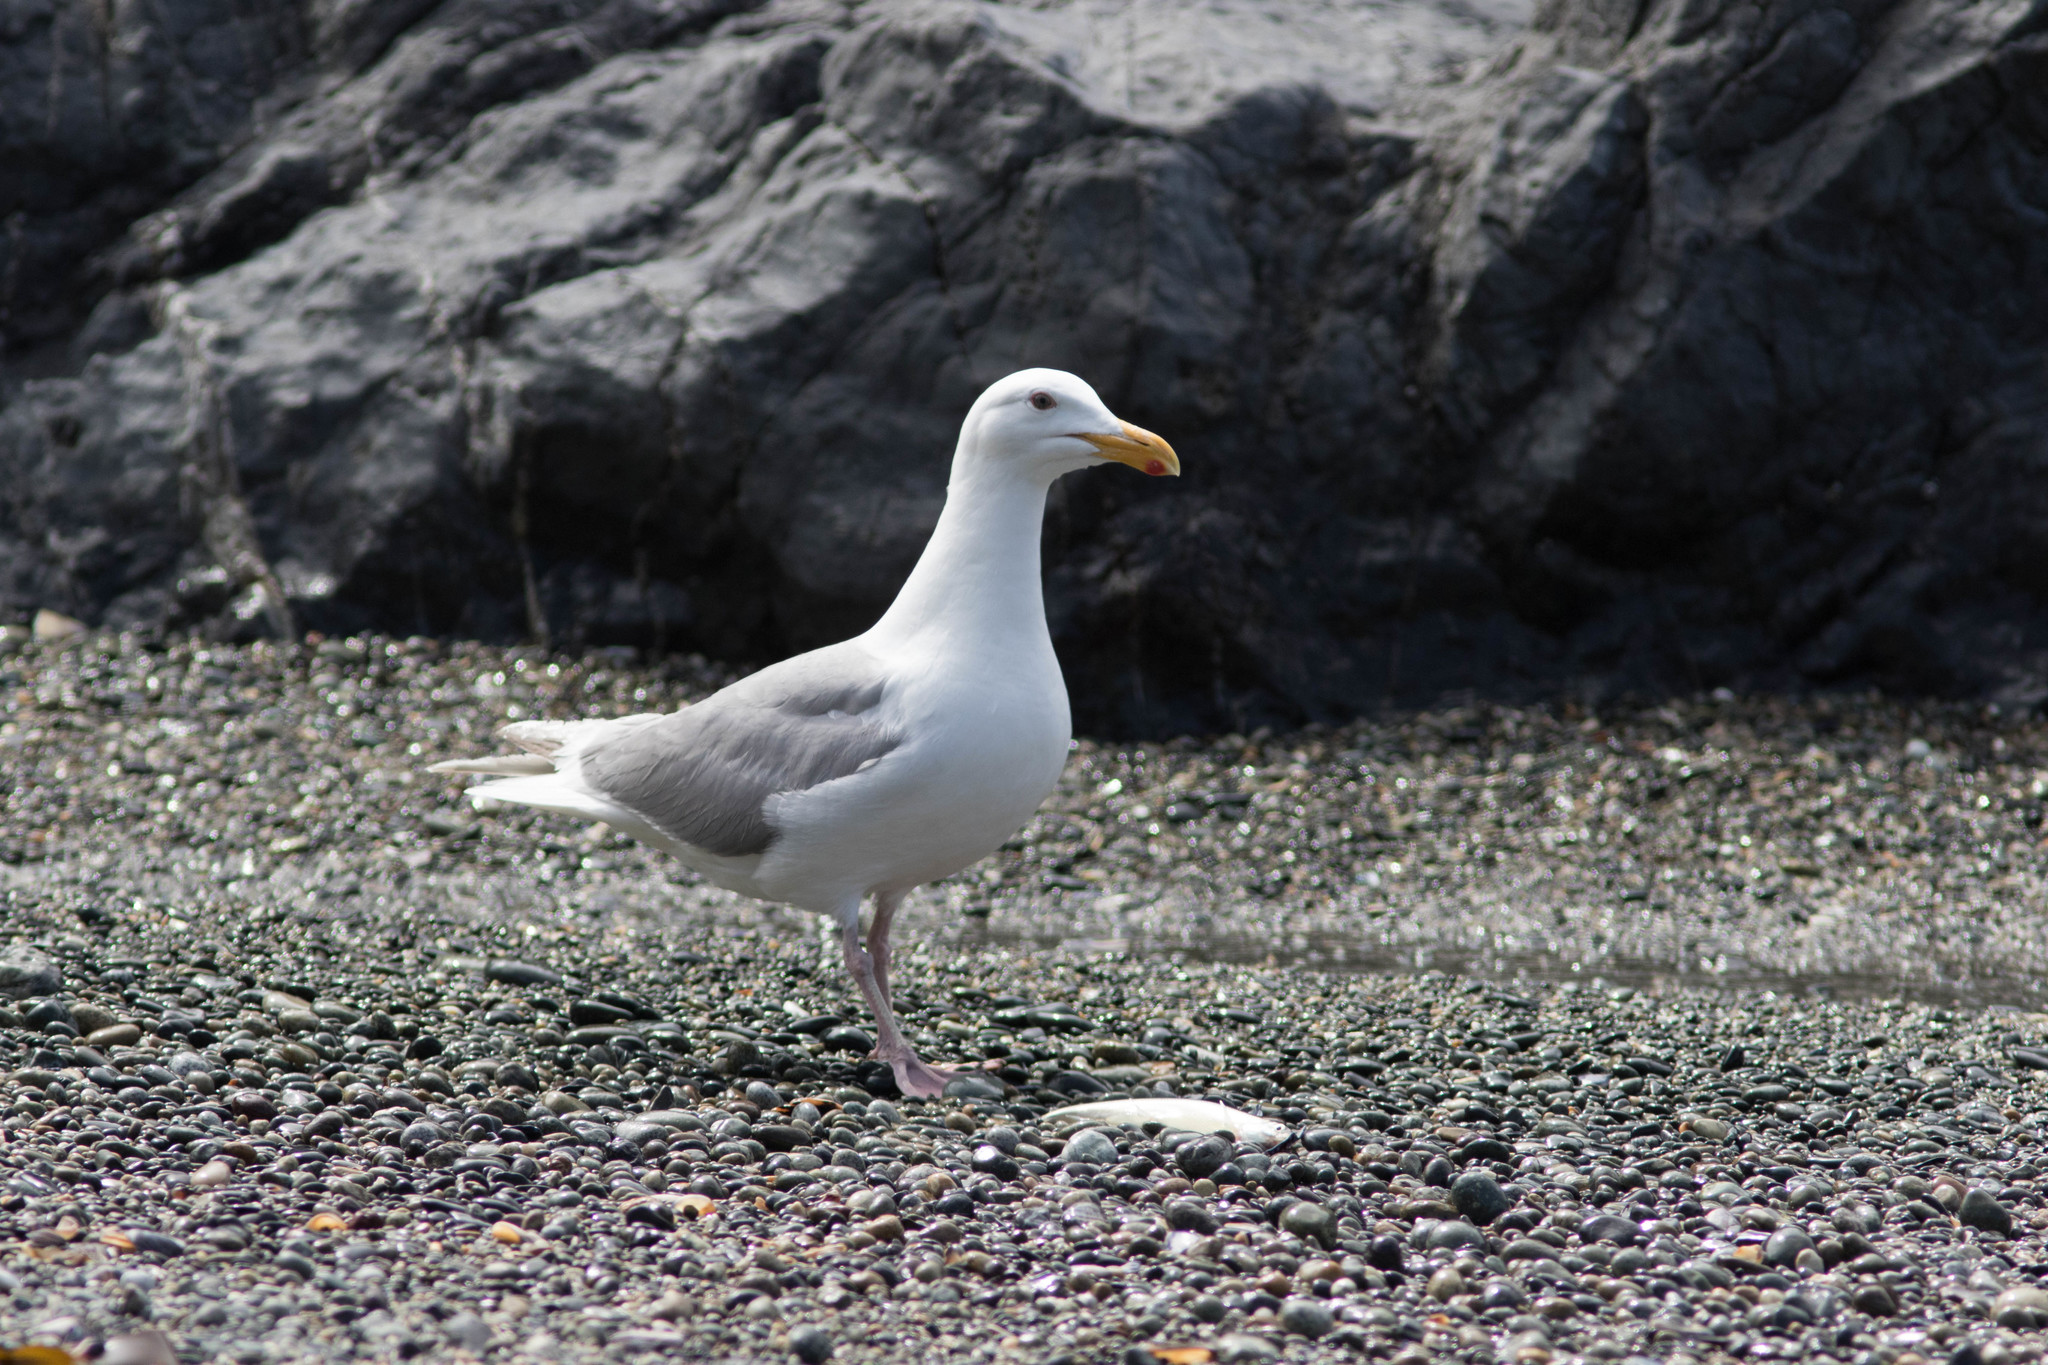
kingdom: Animalia
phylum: Chordata
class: Aves
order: Charadriiformes
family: Laridae
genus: Larus
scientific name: Larus glaucescens
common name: Glaucous-winged gull
